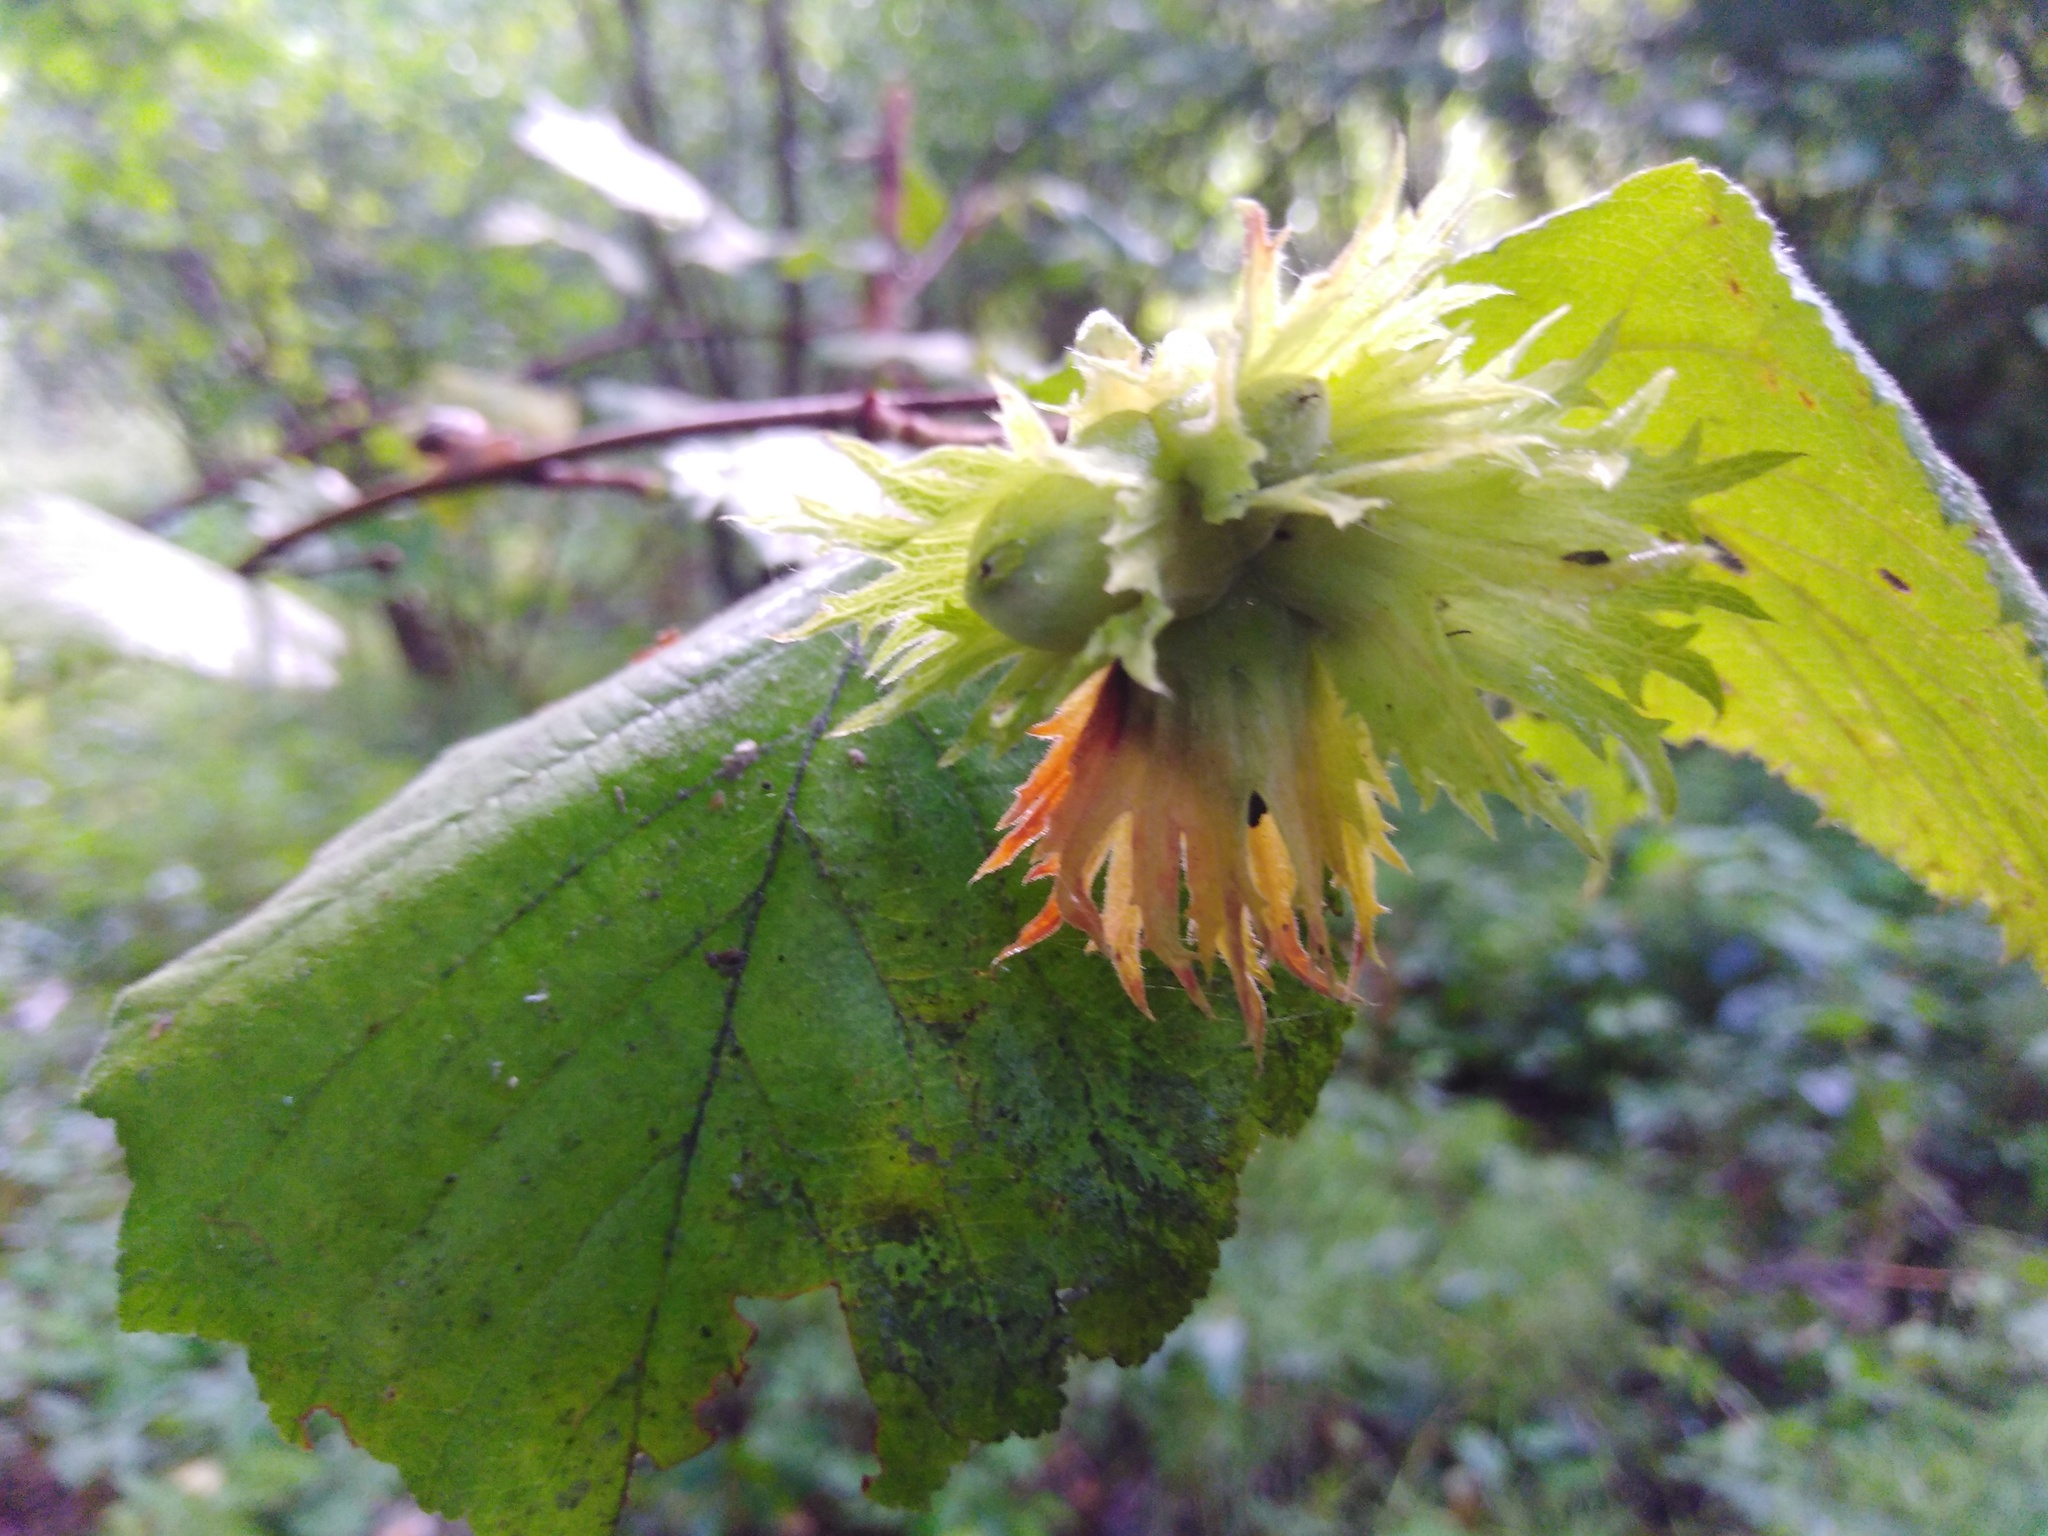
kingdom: Plantae
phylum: Tracheophyta
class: Magnoliopsida
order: Fagales
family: Betulaceae
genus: Corylus
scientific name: Corylus avellana
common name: European hazel
